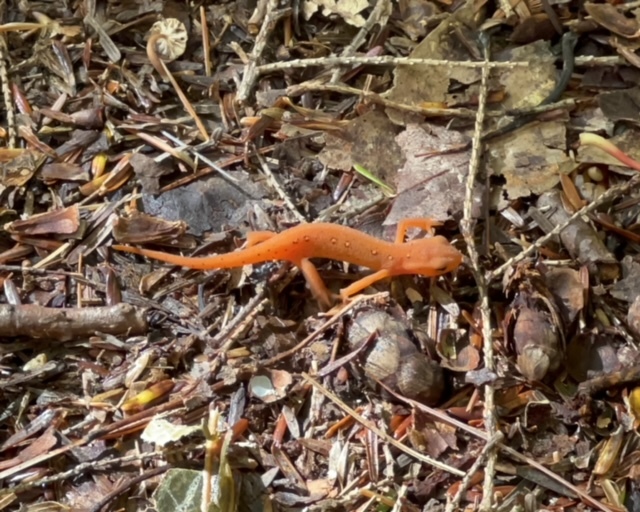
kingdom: Animalia
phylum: Chordata
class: Amphibia
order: Caudata
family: Salamandridae
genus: Notophthalmus
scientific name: Notophthalmus viridescens
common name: Eastern newt
